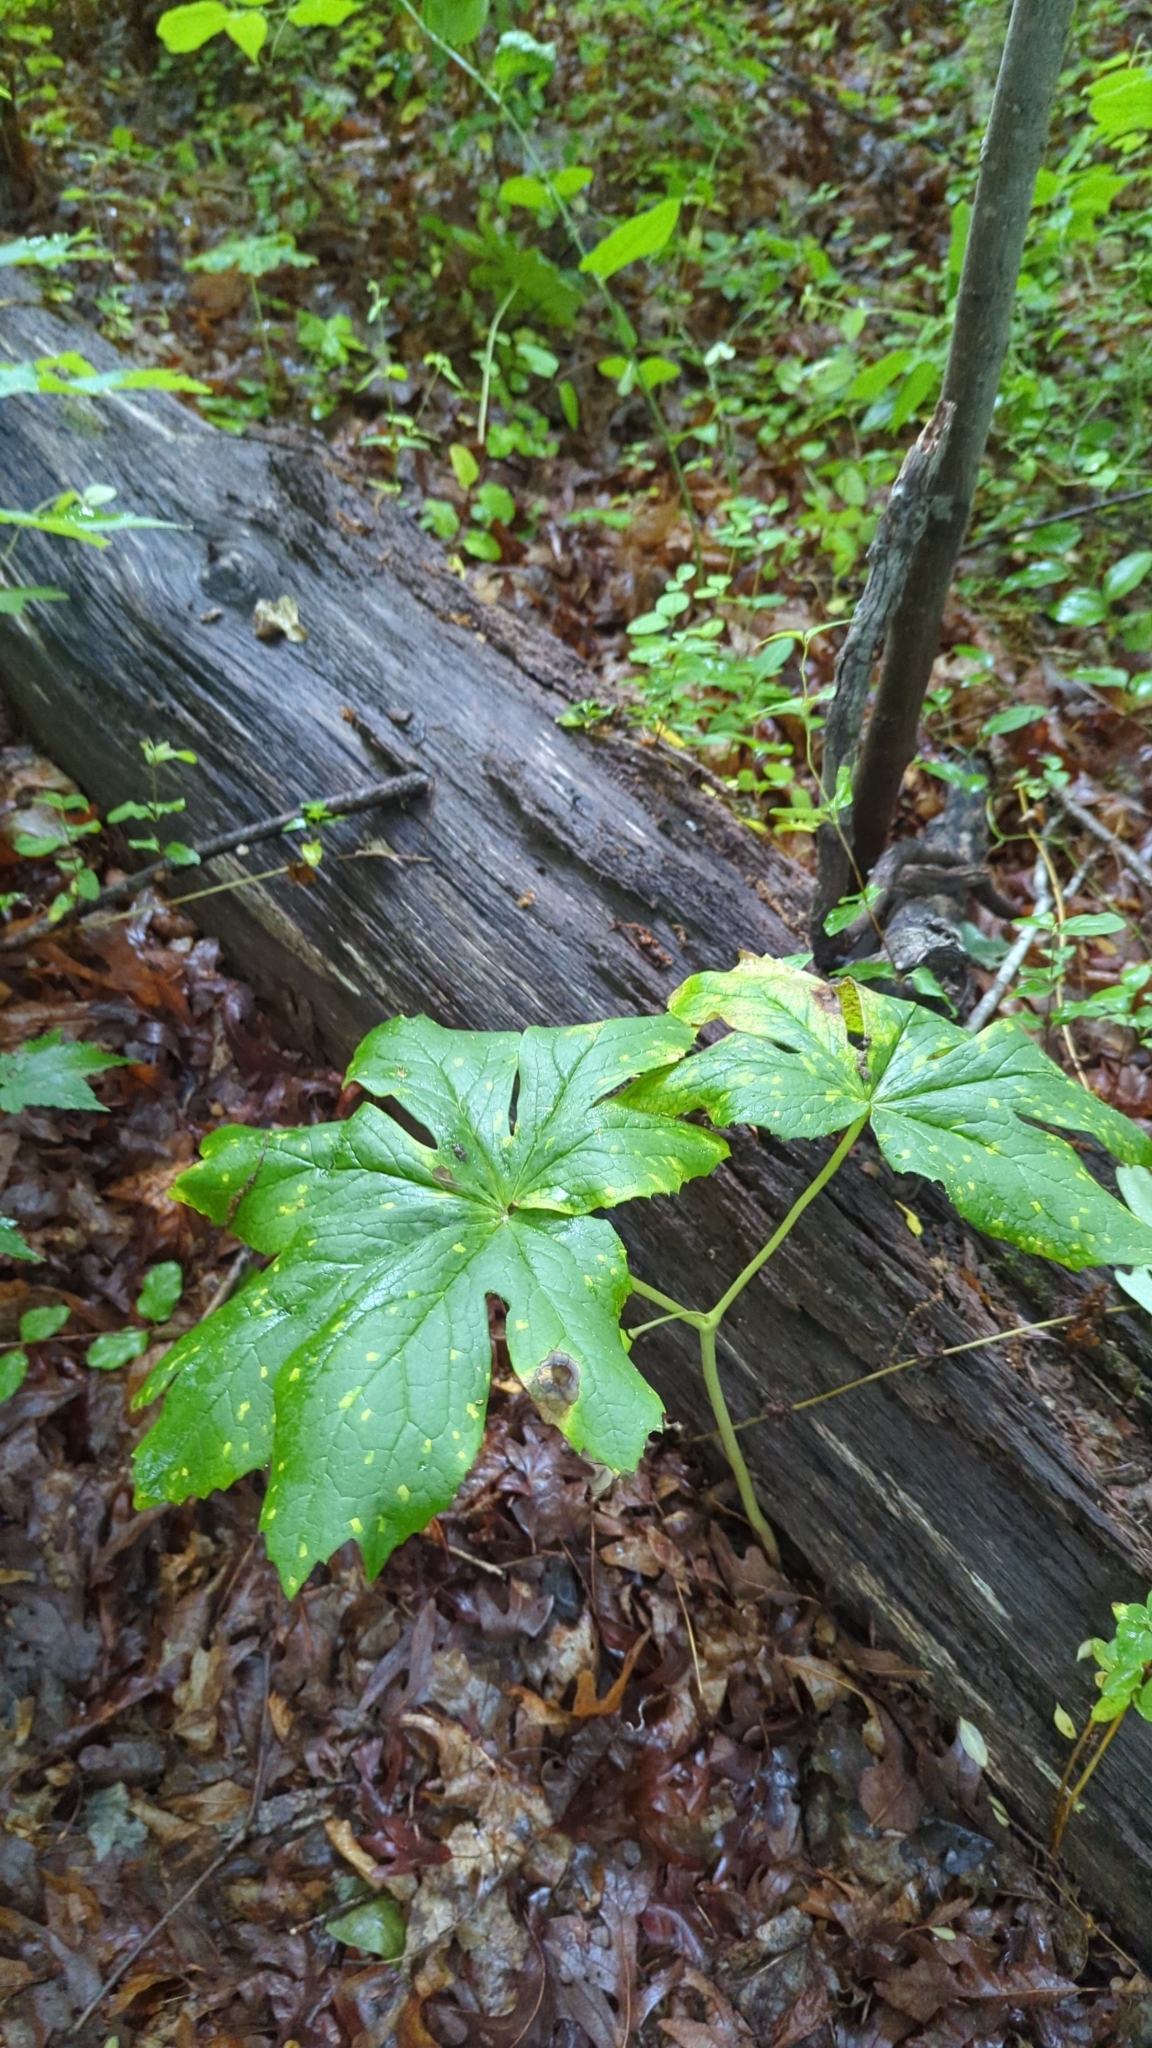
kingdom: Plantae
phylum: Tracheophyta
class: Magnoliopsida
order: Ranunculales
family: Berberidaceae
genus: Podophyllum
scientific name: Podophyllum peltatum
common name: Wild mandrake
